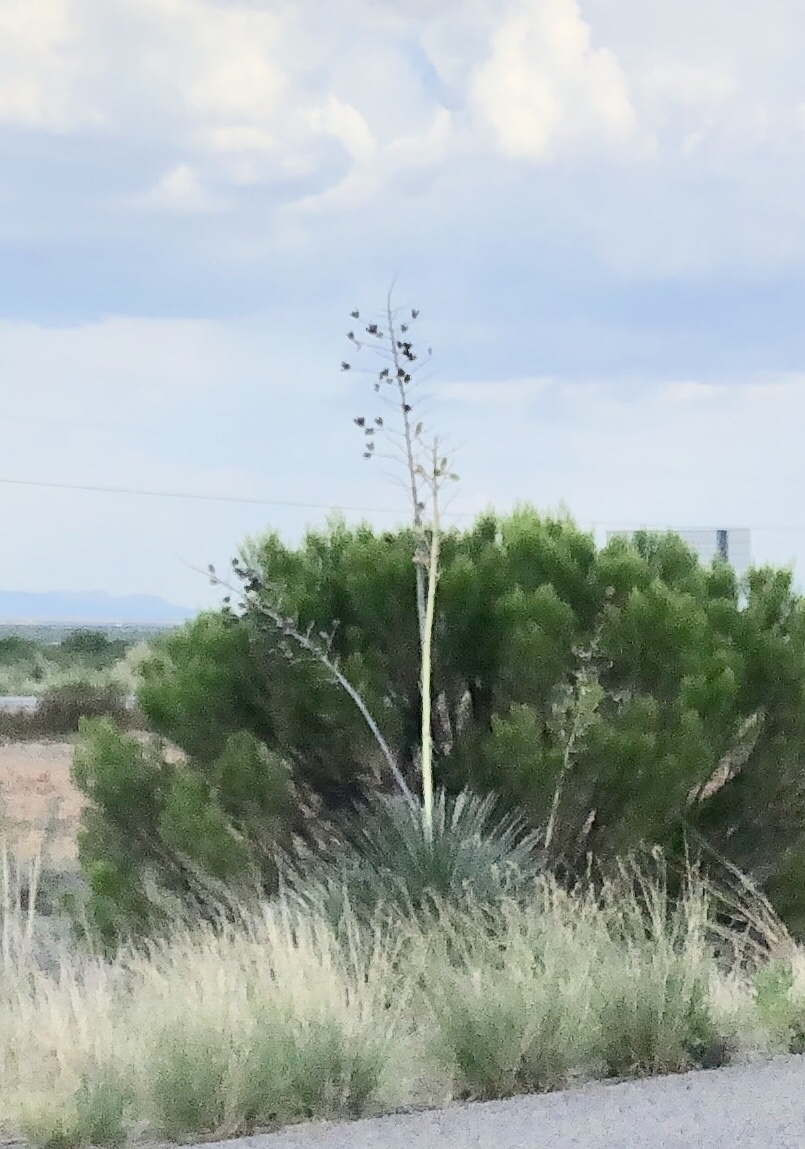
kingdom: Plantae
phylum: Tracheophyta
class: Liliopsida
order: Asparagales
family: Asparagaceae
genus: Yucca
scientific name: Yucca elata
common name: Palmella
